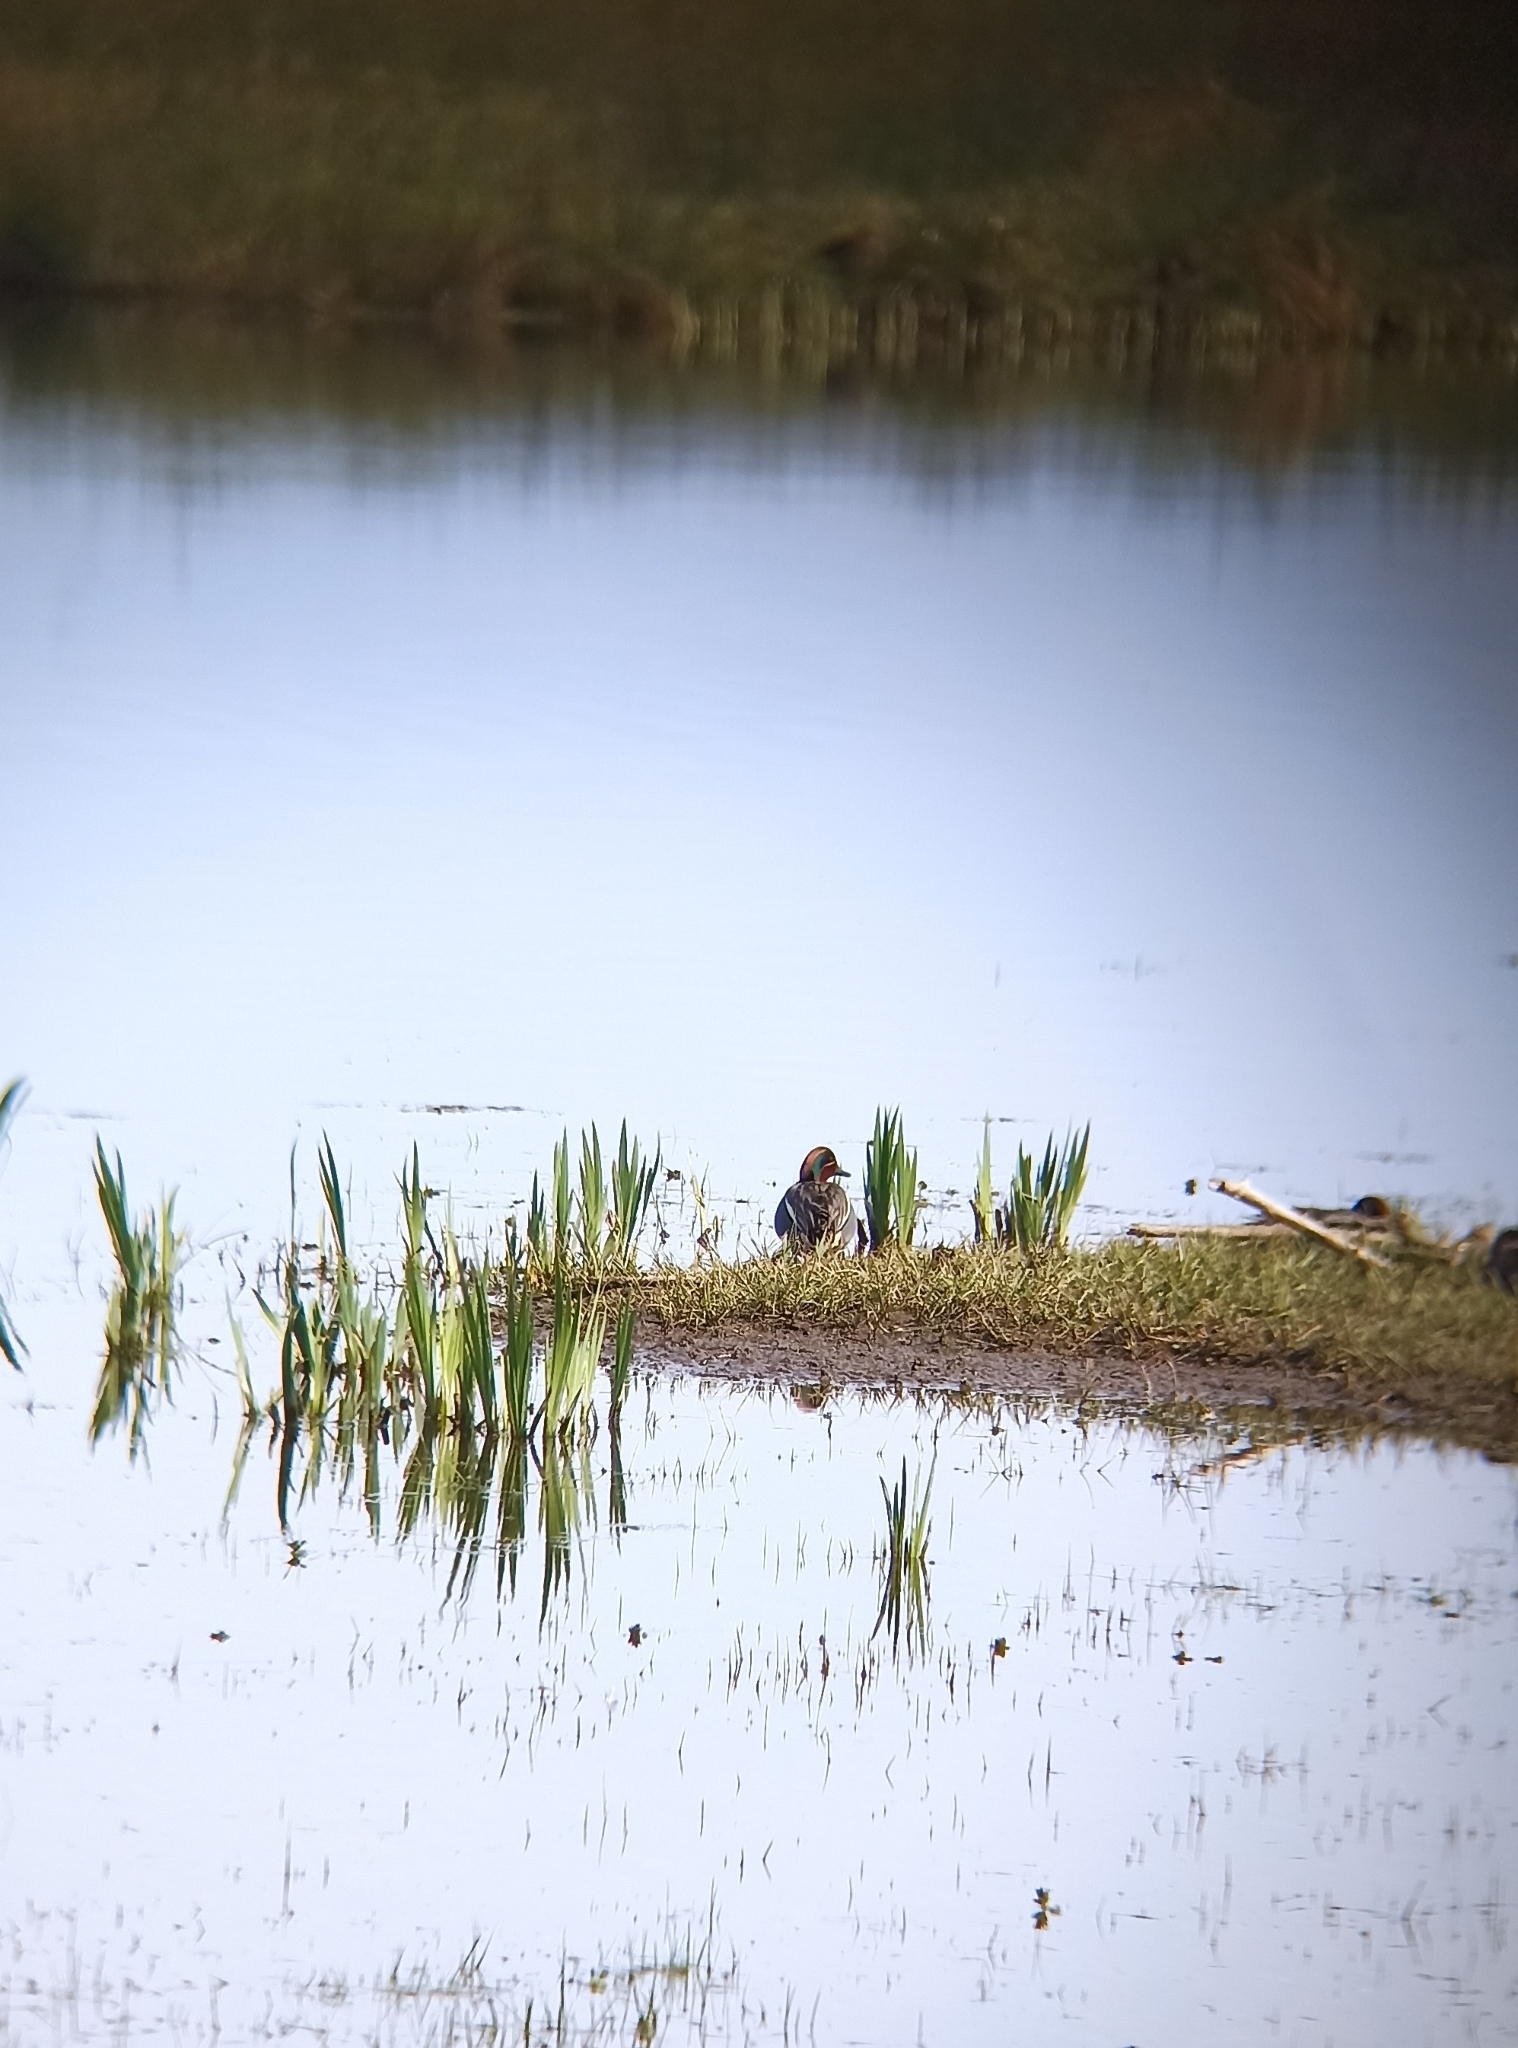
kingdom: Animalia
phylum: Chordata
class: Aves
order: Anseriformes
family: Anatidae
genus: Anas
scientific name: Anas crecca
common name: Eurasian teal
